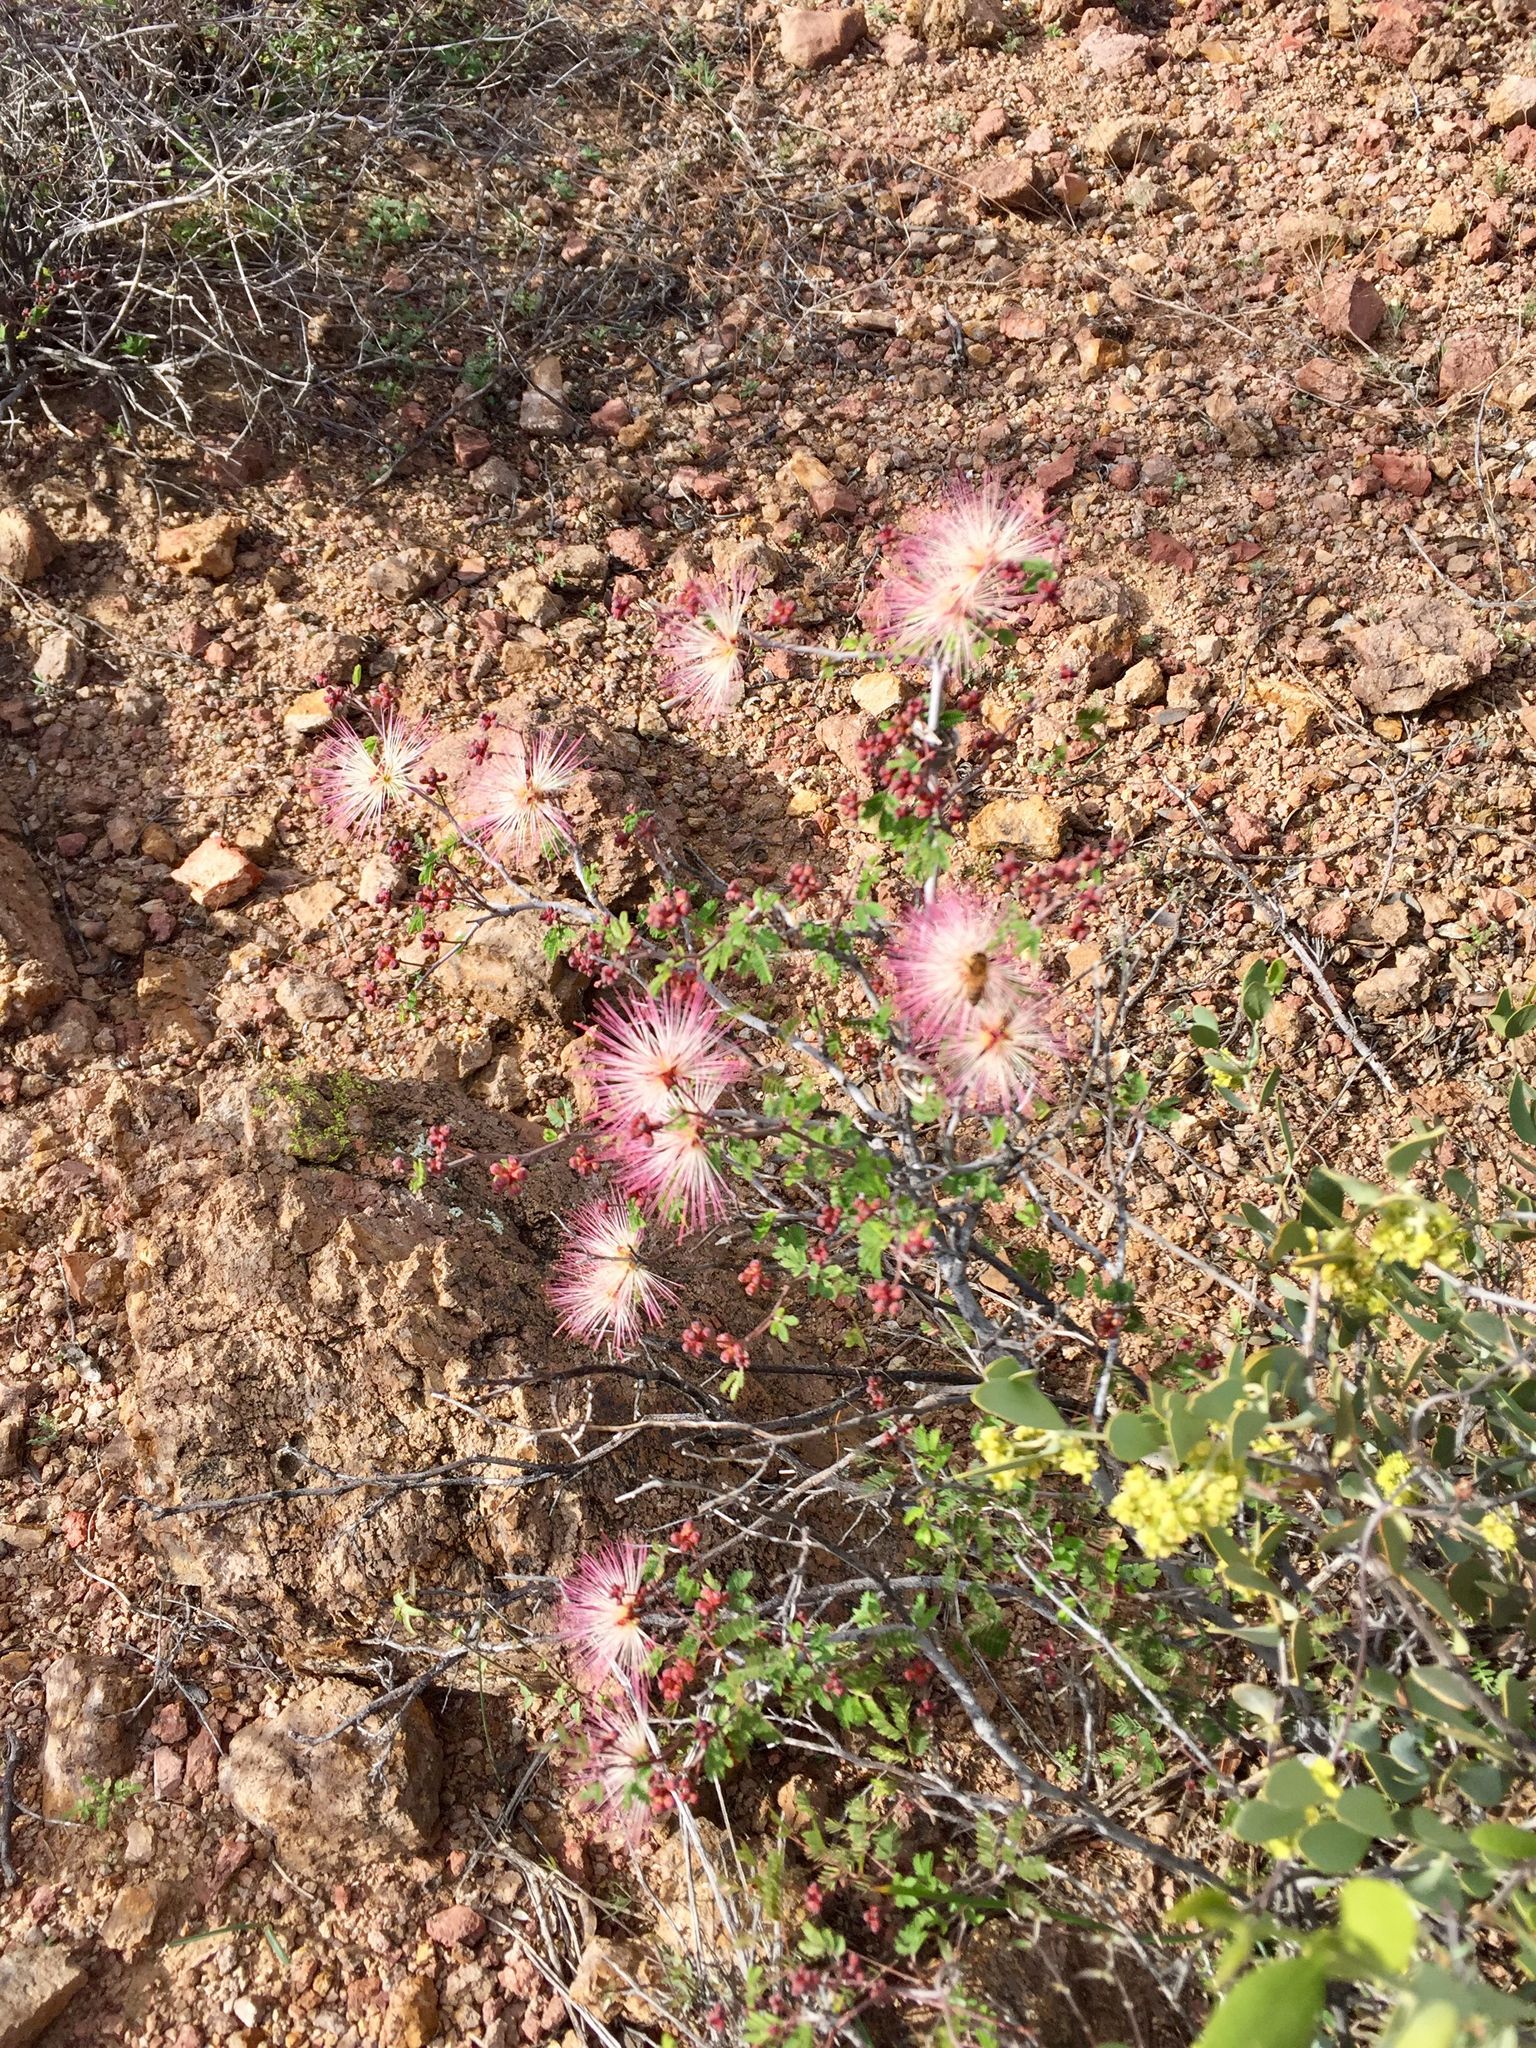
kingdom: Plantae
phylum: Tracheophyta
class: Magnoliopsida
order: Fabales
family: Fabaceae
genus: Calliandra
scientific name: Calliandra eriophylla
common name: Fairy-duster
